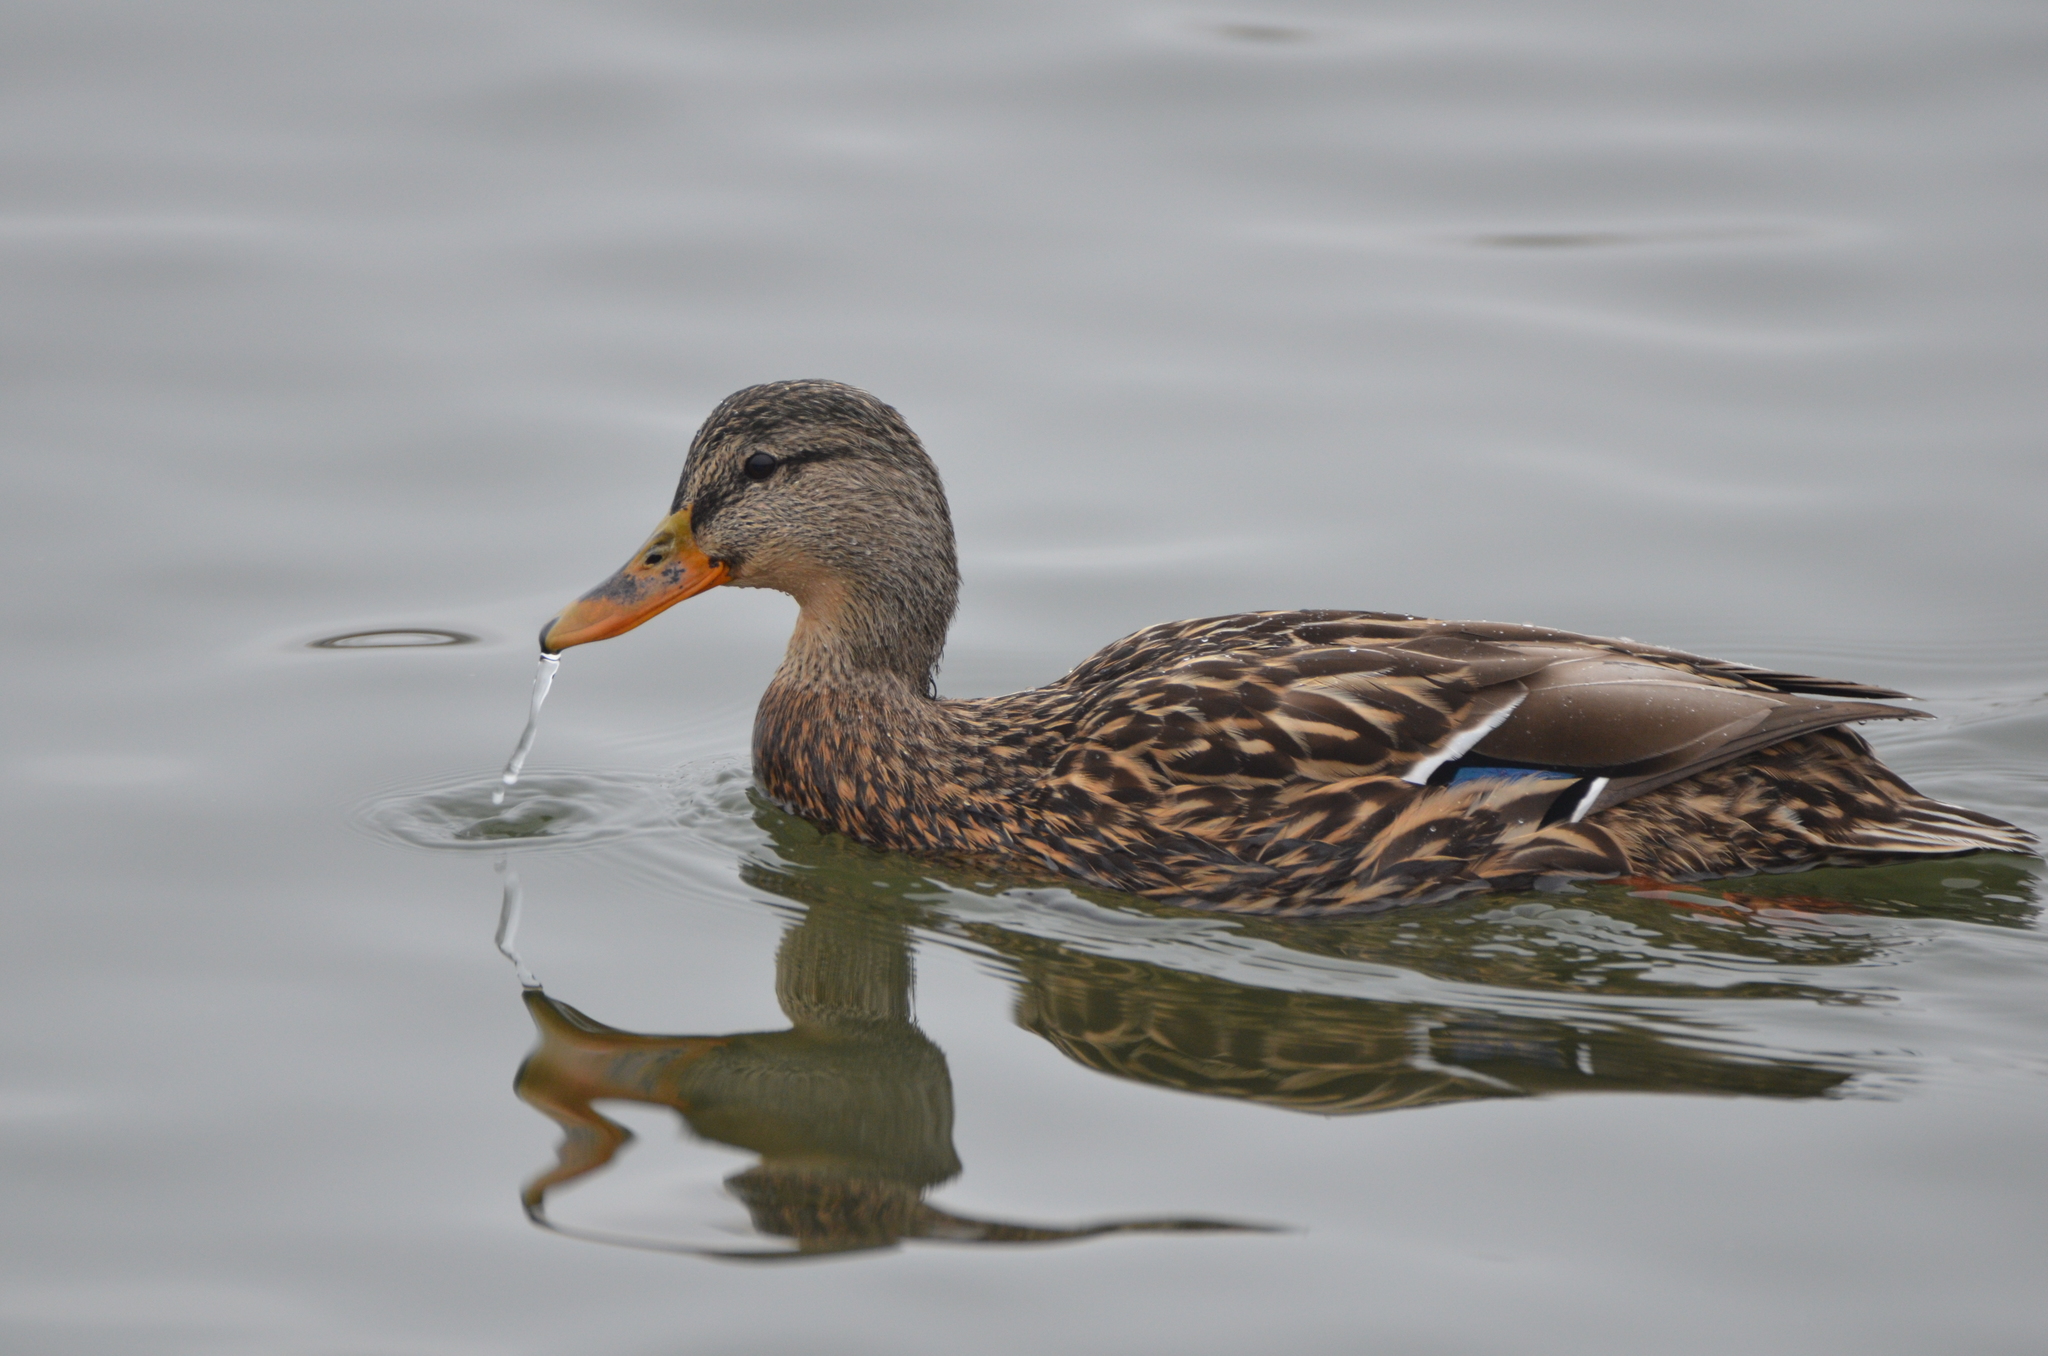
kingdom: Animalia
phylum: Chordata
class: Aves
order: Anseriformes
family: Anatidae
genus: Anas
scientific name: Anas platyrhynchos
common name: Mallard
